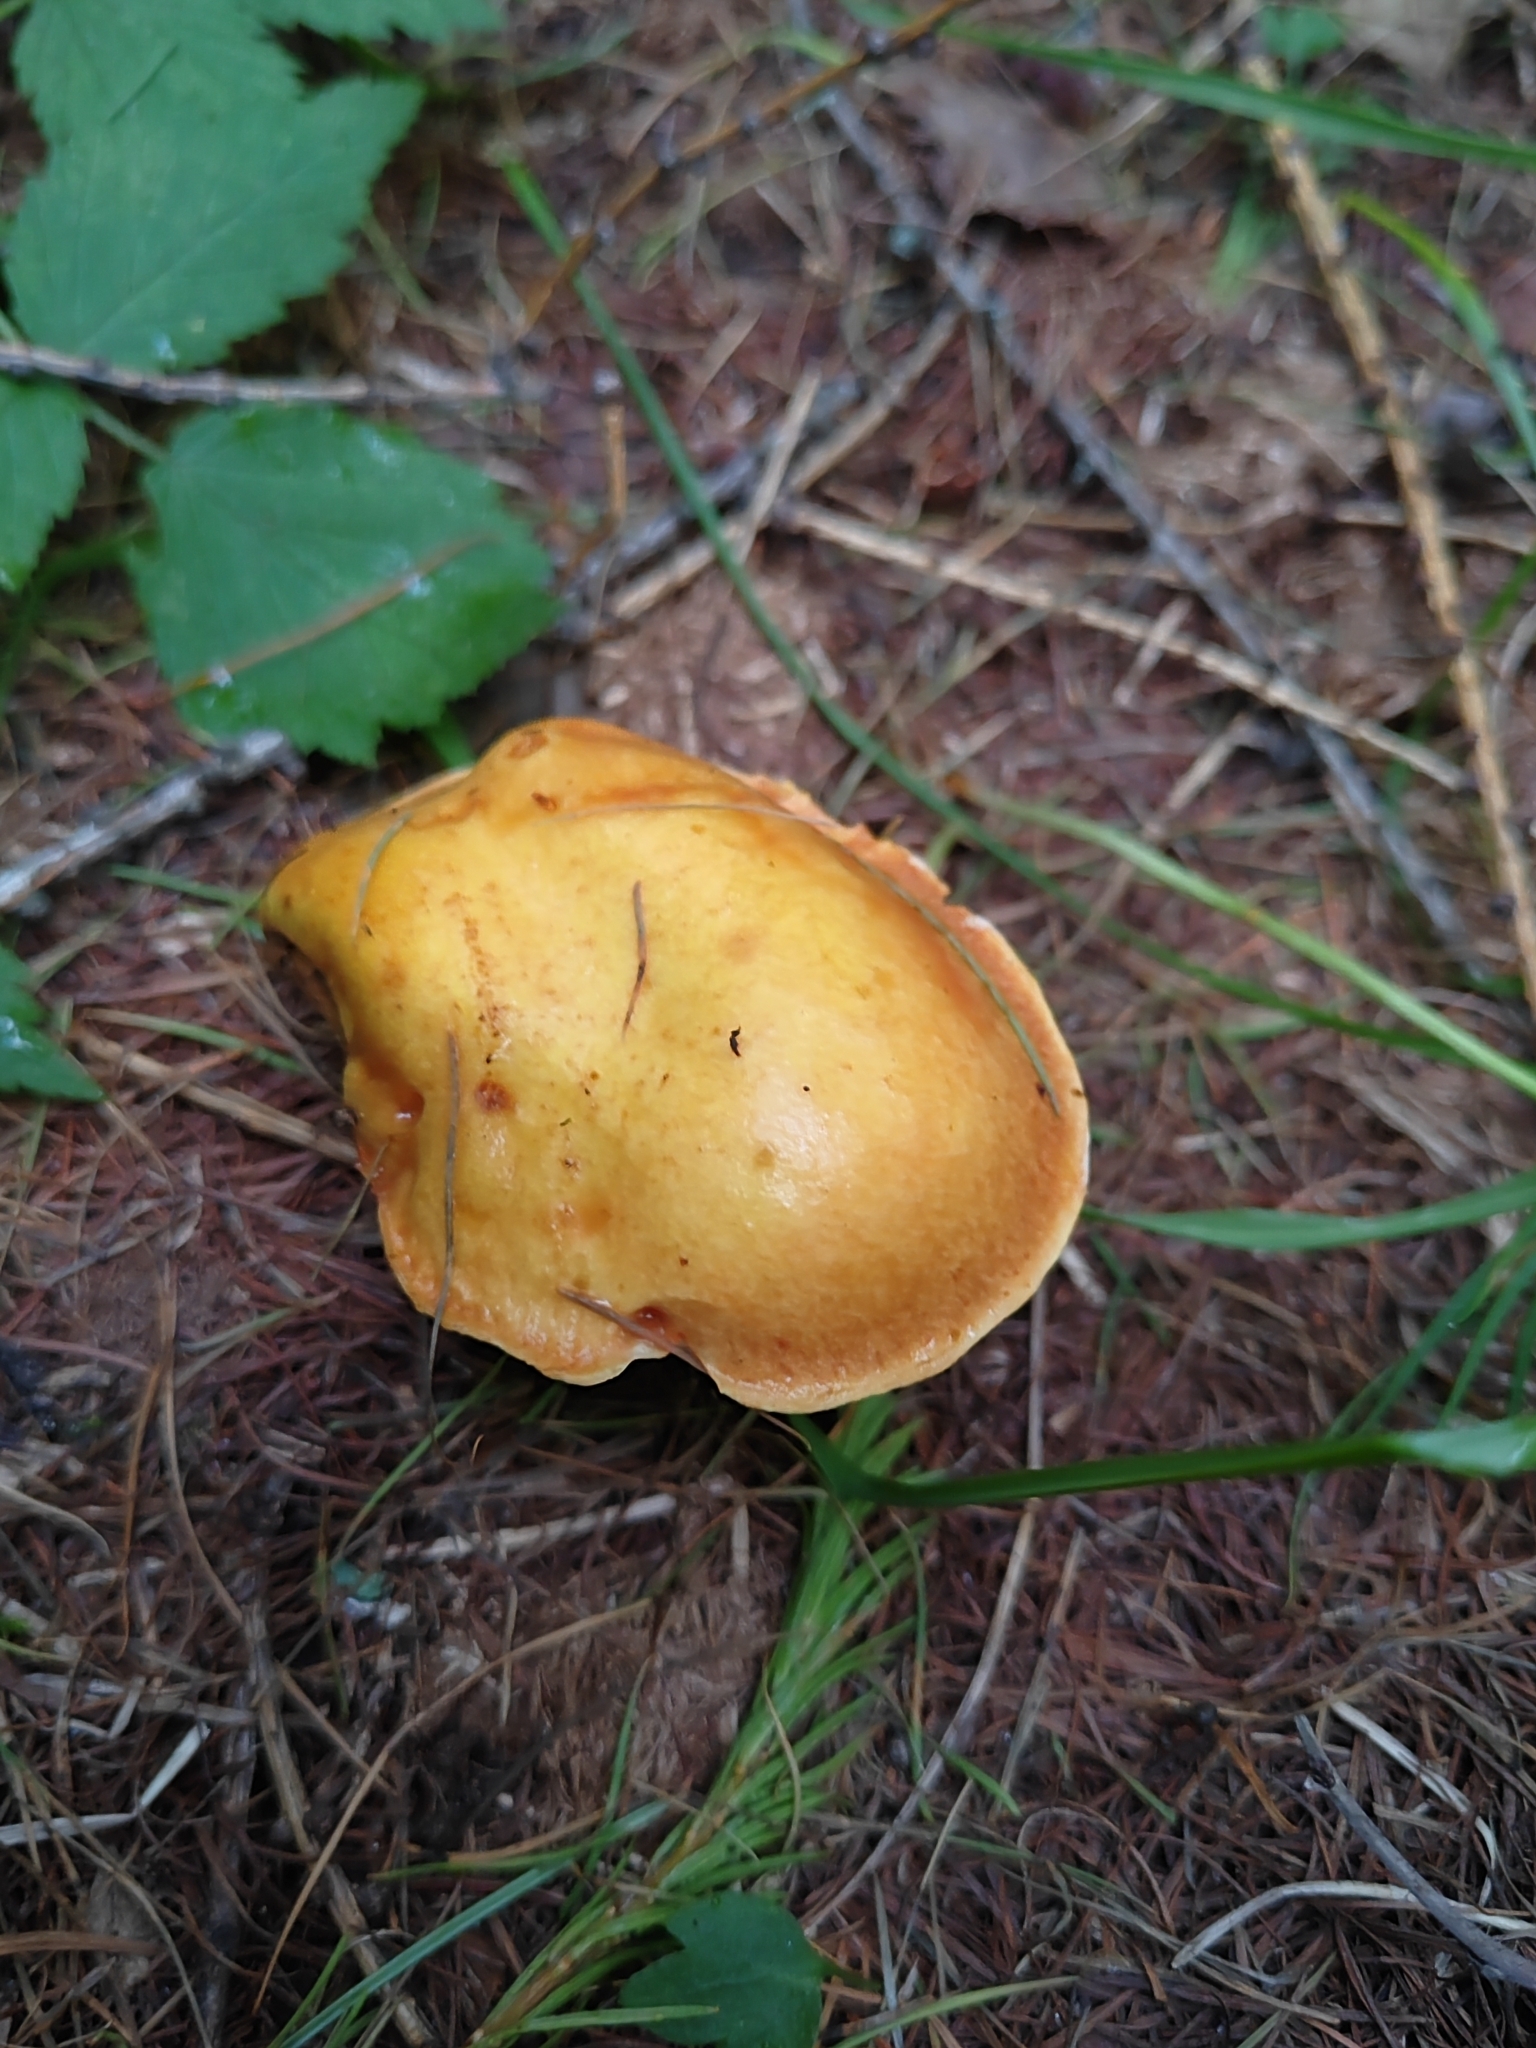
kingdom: Fungi
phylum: Basidiomycota
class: Agaricomycetes
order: Boletales
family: Suillaceae
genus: Suillus
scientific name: Suillus grevillei
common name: Larch bolete
